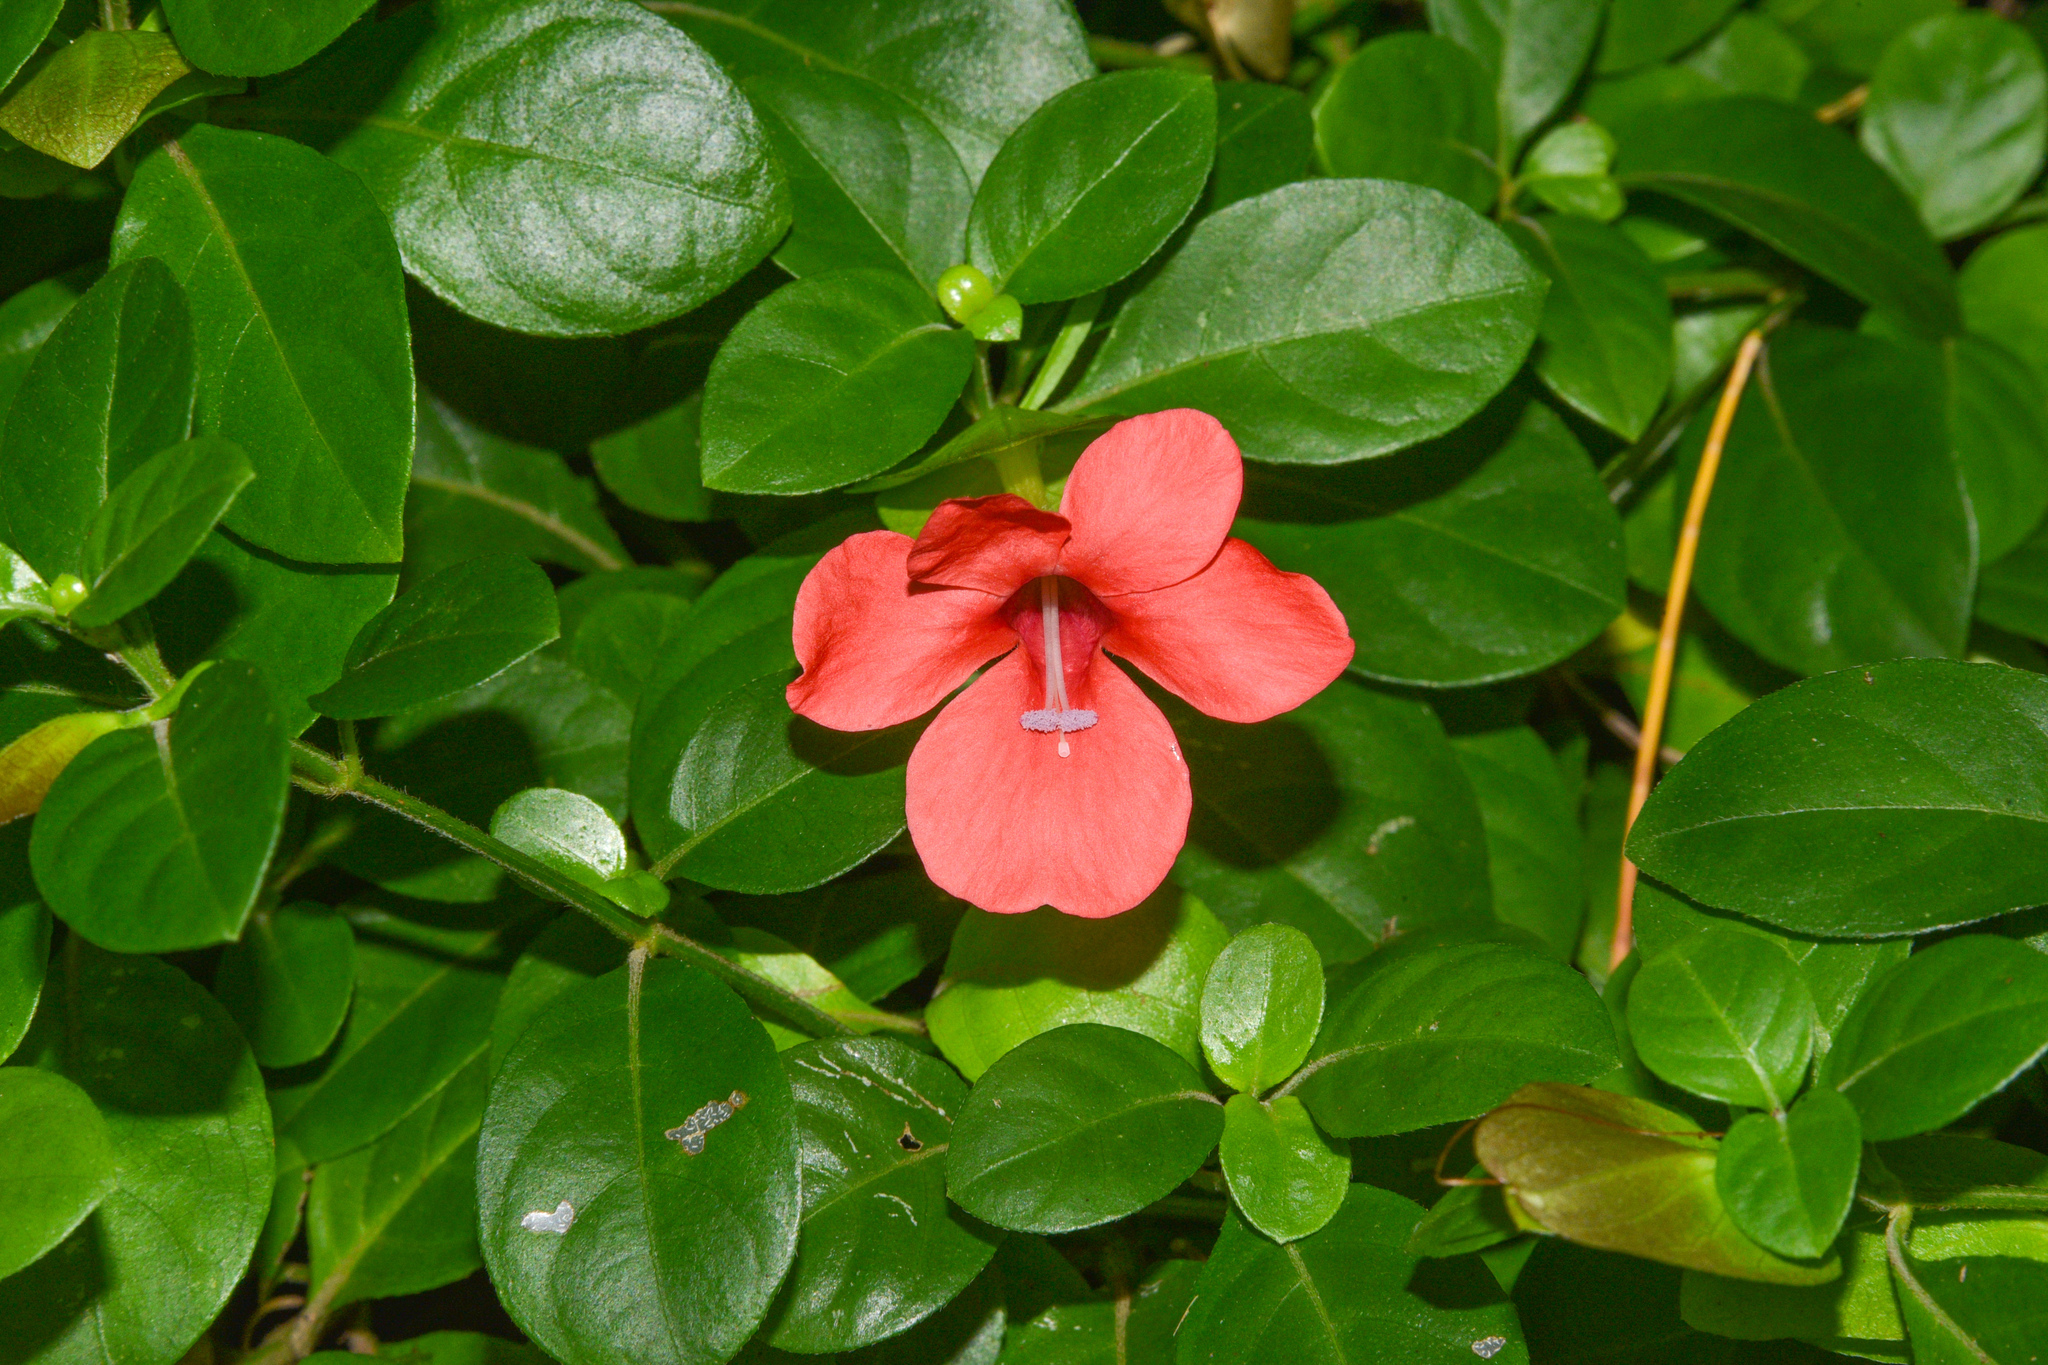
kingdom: Plantae
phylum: Tracheophyta
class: Magnoliopsida
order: Lamiales
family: Acanthaceae
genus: Barleria
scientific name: Barleria repens
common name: Pink-ruellia
